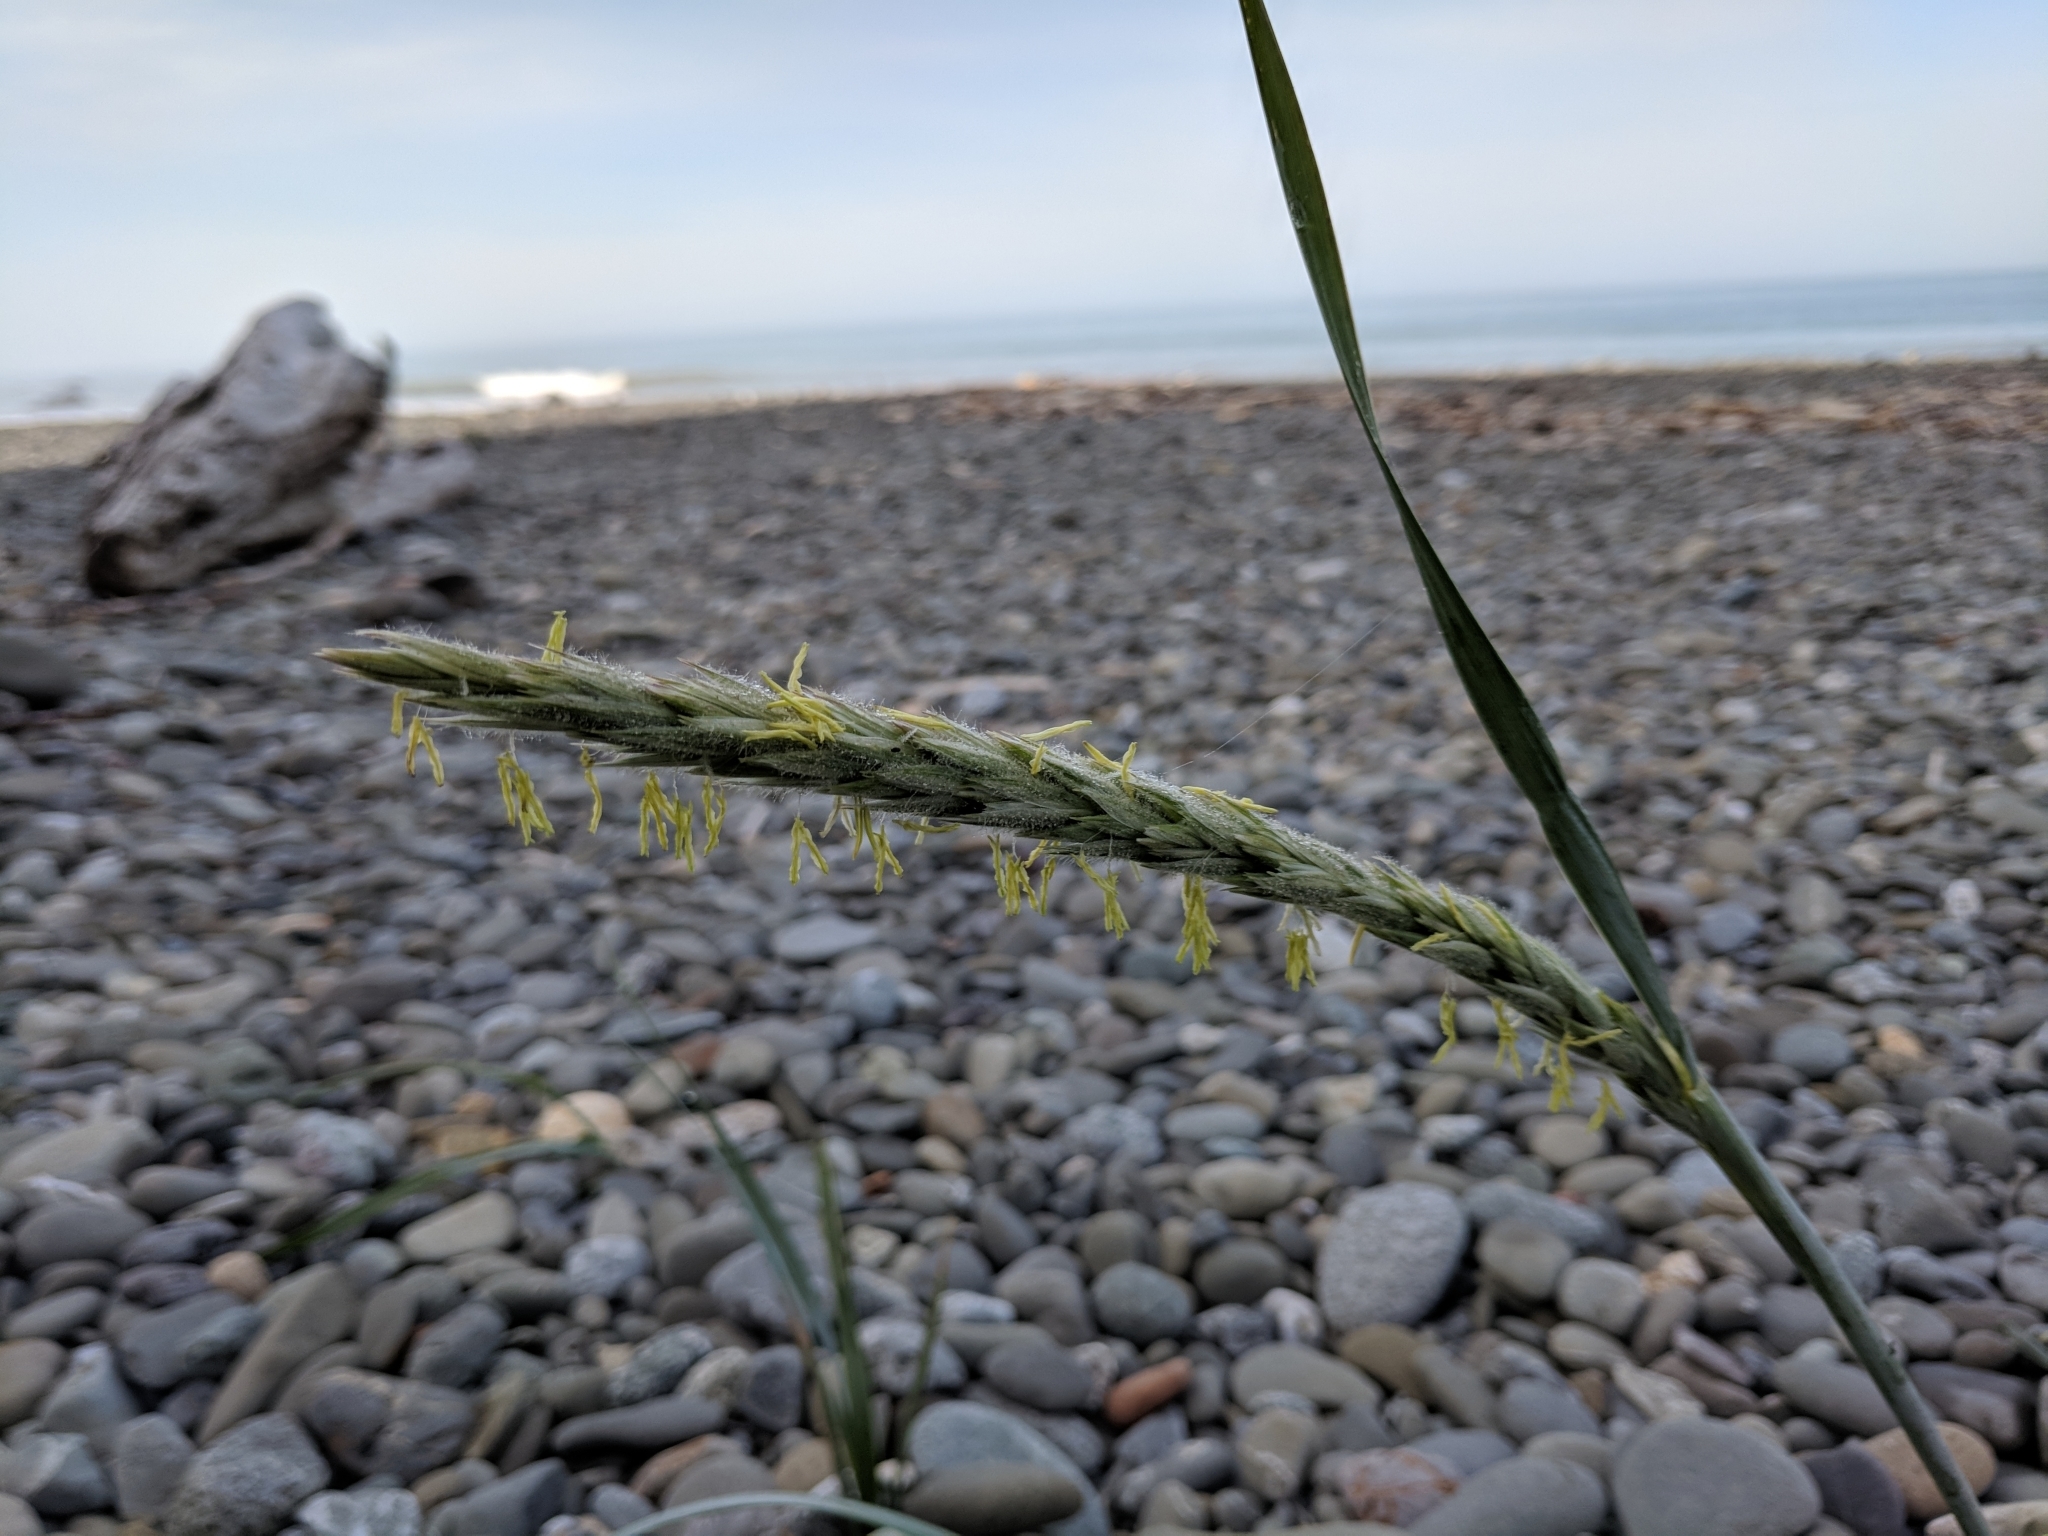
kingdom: Plantae
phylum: Tracheophyta
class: Liliopsida
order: Poales
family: Poaceae
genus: Leymus
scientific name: Leymus mollis
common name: American dune grass
